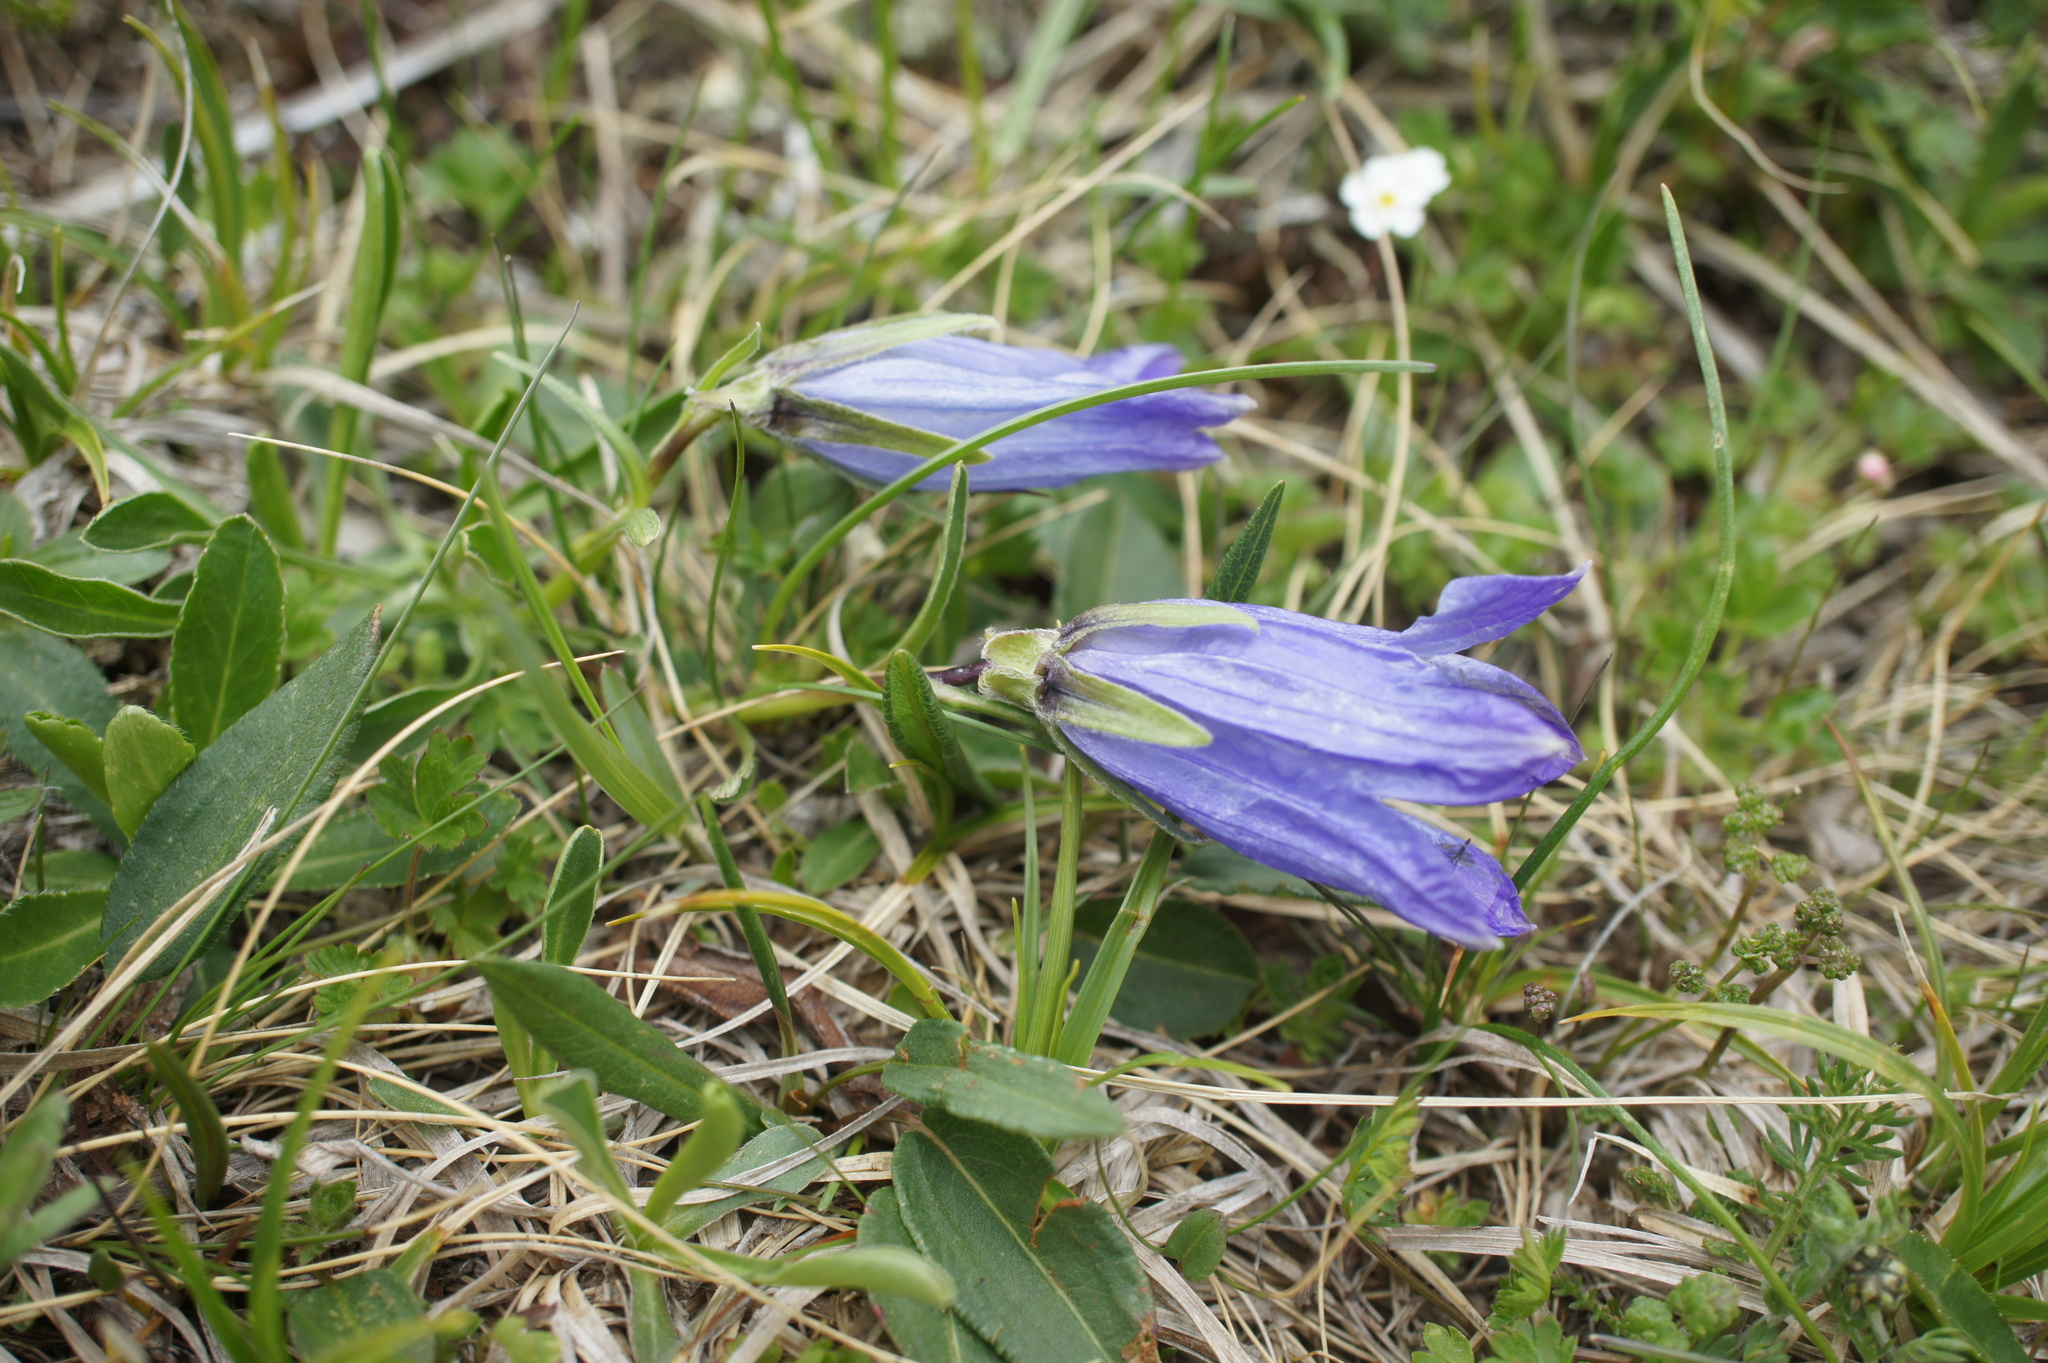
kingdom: Plantae
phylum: Tracheophyta
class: Magnoliopsida
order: Asterales
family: Campanulaceae
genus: Campanula
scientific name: Campanula saxifraga
